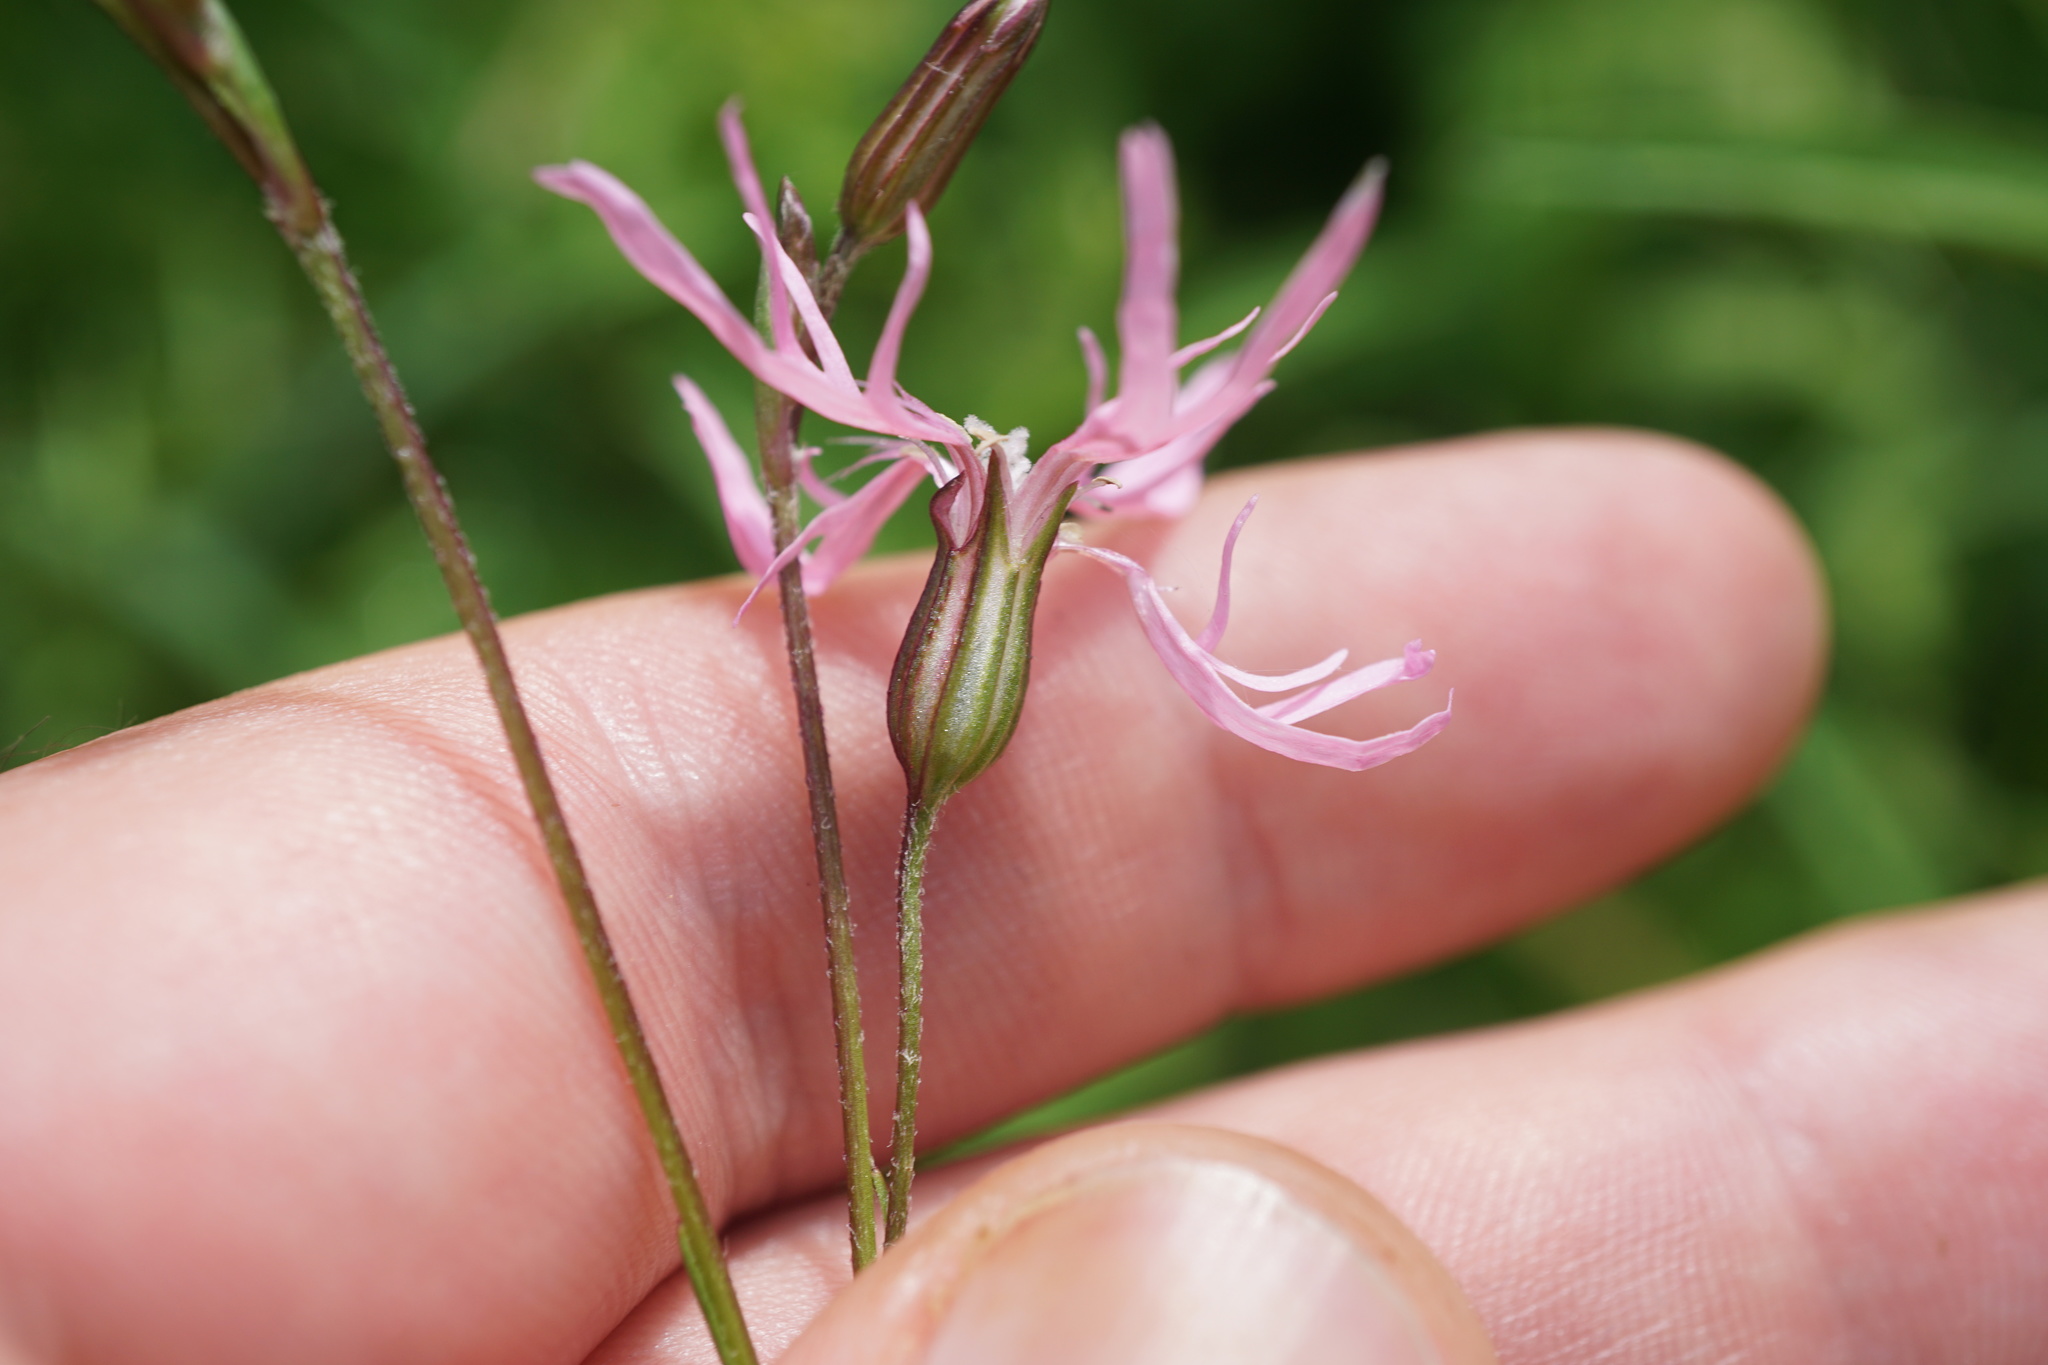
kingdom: Plantae
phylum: Tracheophyta
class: Magnoliopsida
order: Caryophyllales
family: Caryophyllaceae
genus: Silene
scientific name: Silene flos-cuculi
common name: Ragged-robin
